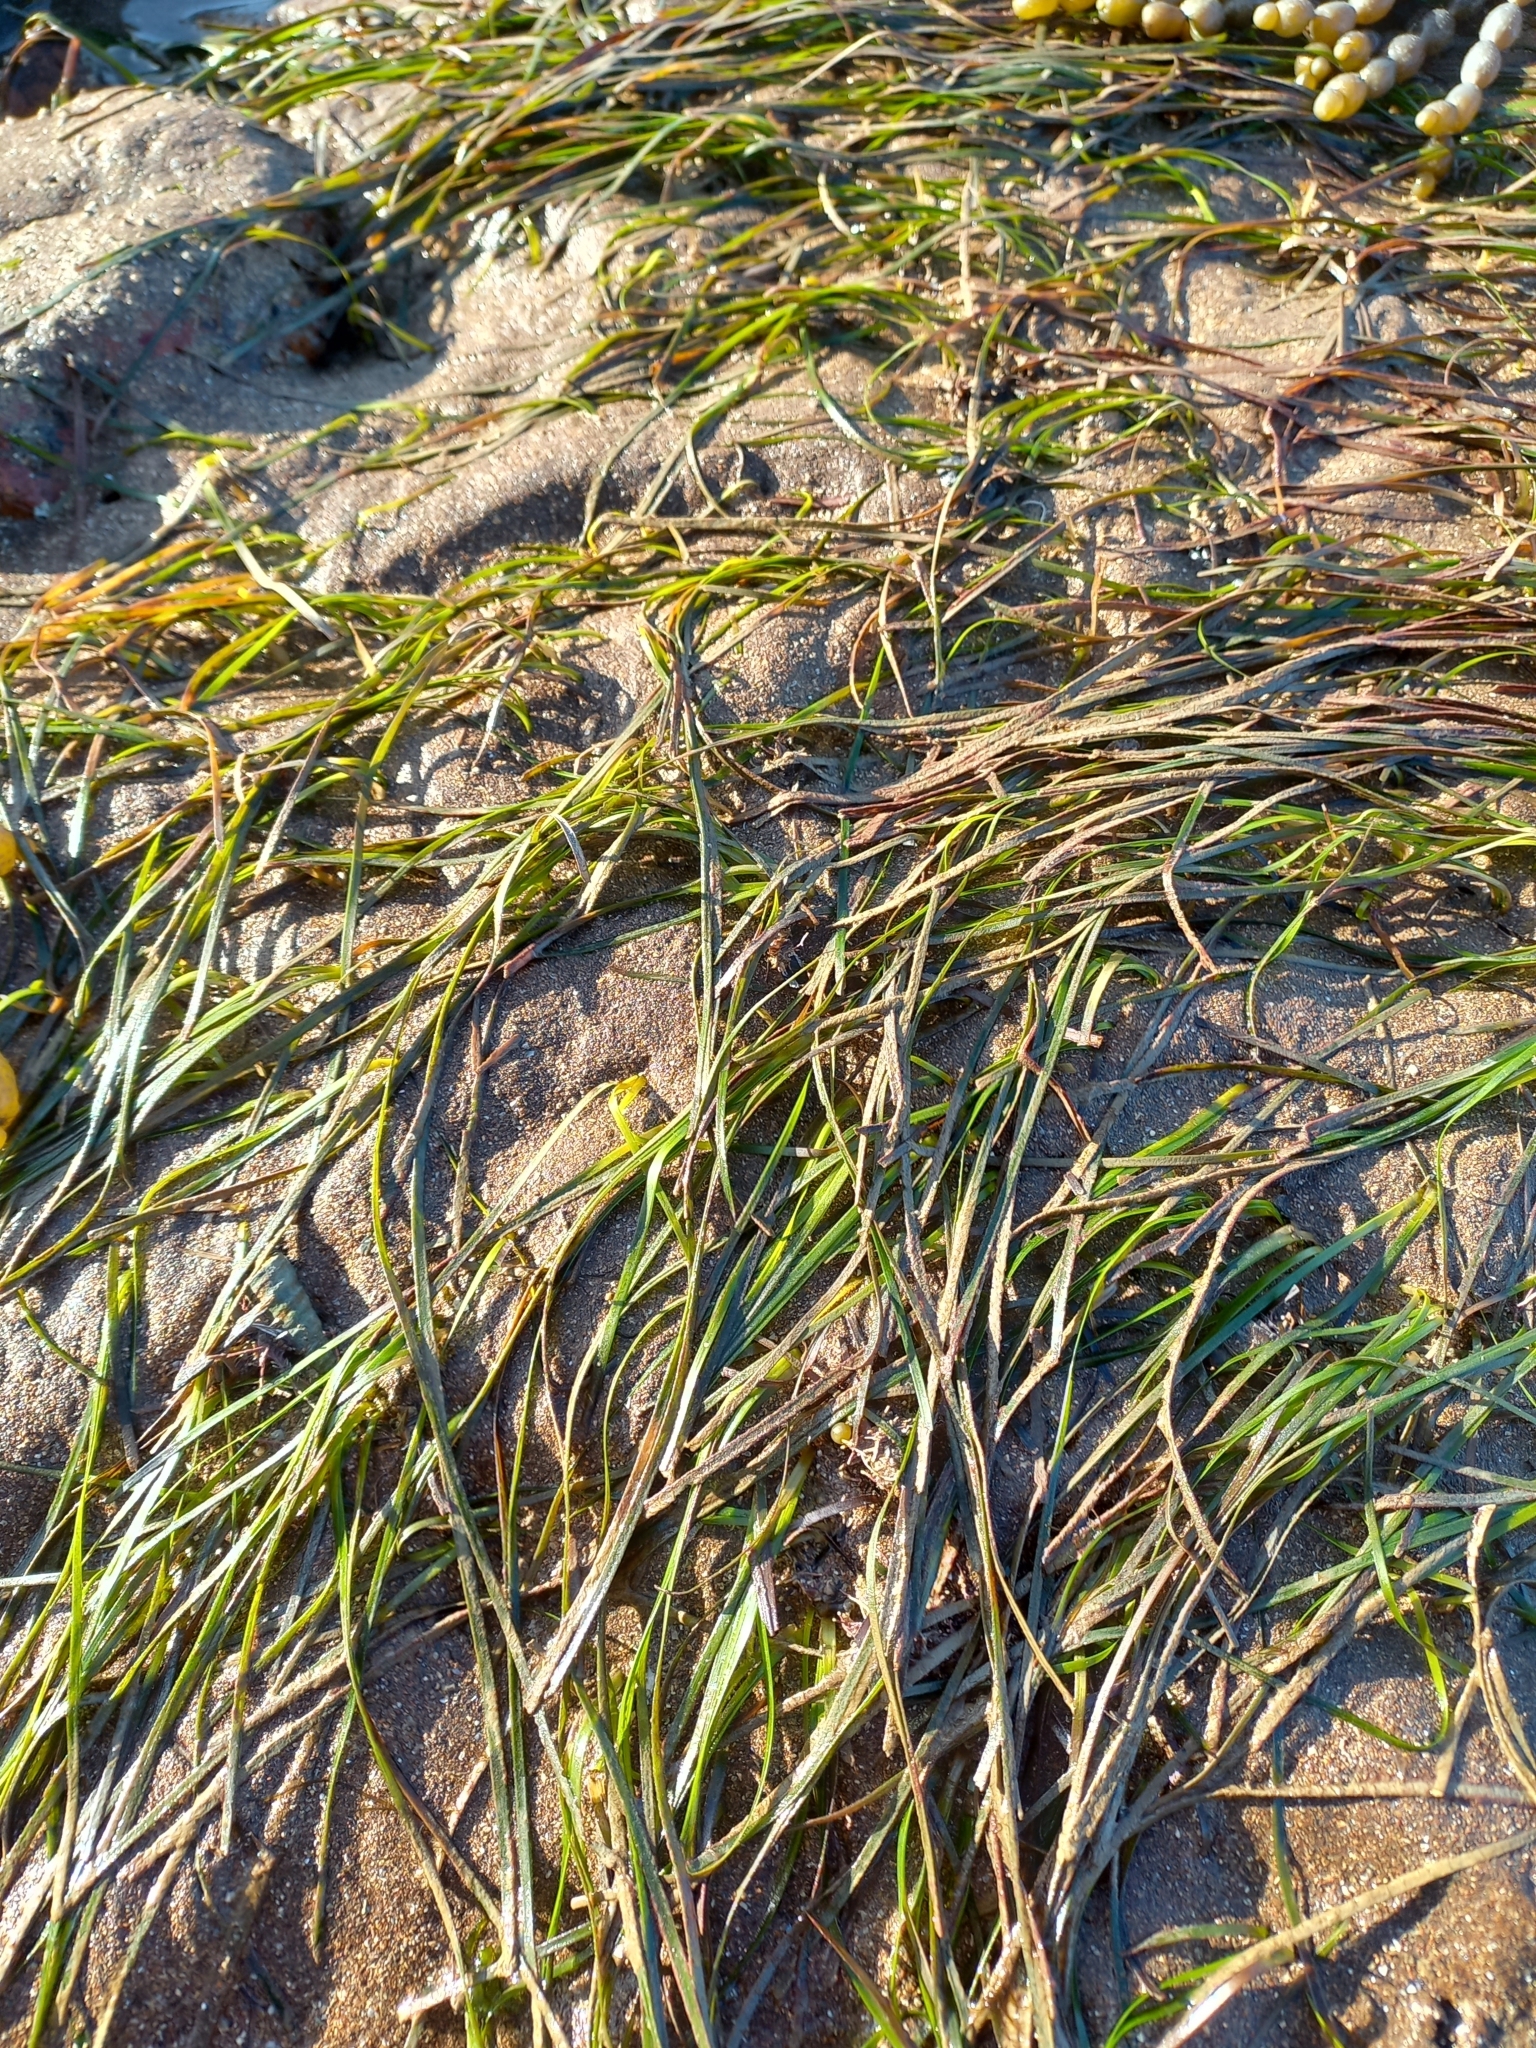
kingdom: Plantae
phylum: Tracheophyta
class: Liliopsida
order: Alismatales
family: Zosteraceae
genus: Zostera
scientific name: Zostera novazelandica
